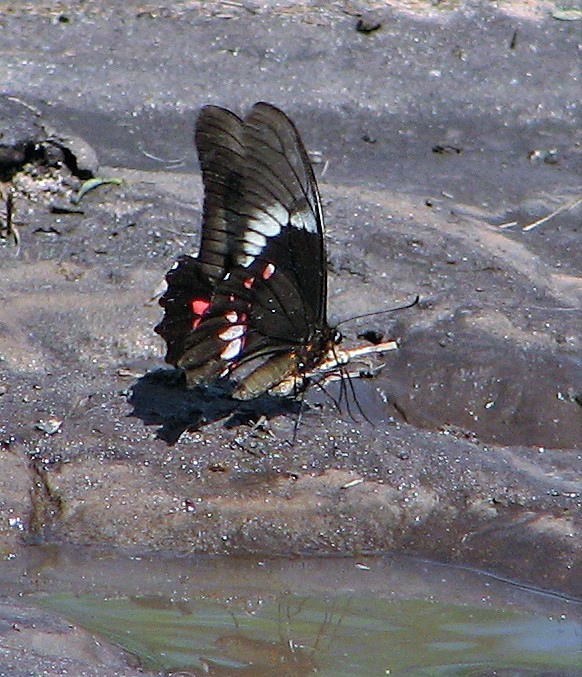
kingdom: Animalia
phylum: Arthropoda
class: Insecta
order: Lepidoptera
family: Papilionidae
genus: Papilio
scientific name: Papilio anchisiades
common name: Idaes swallowtail
